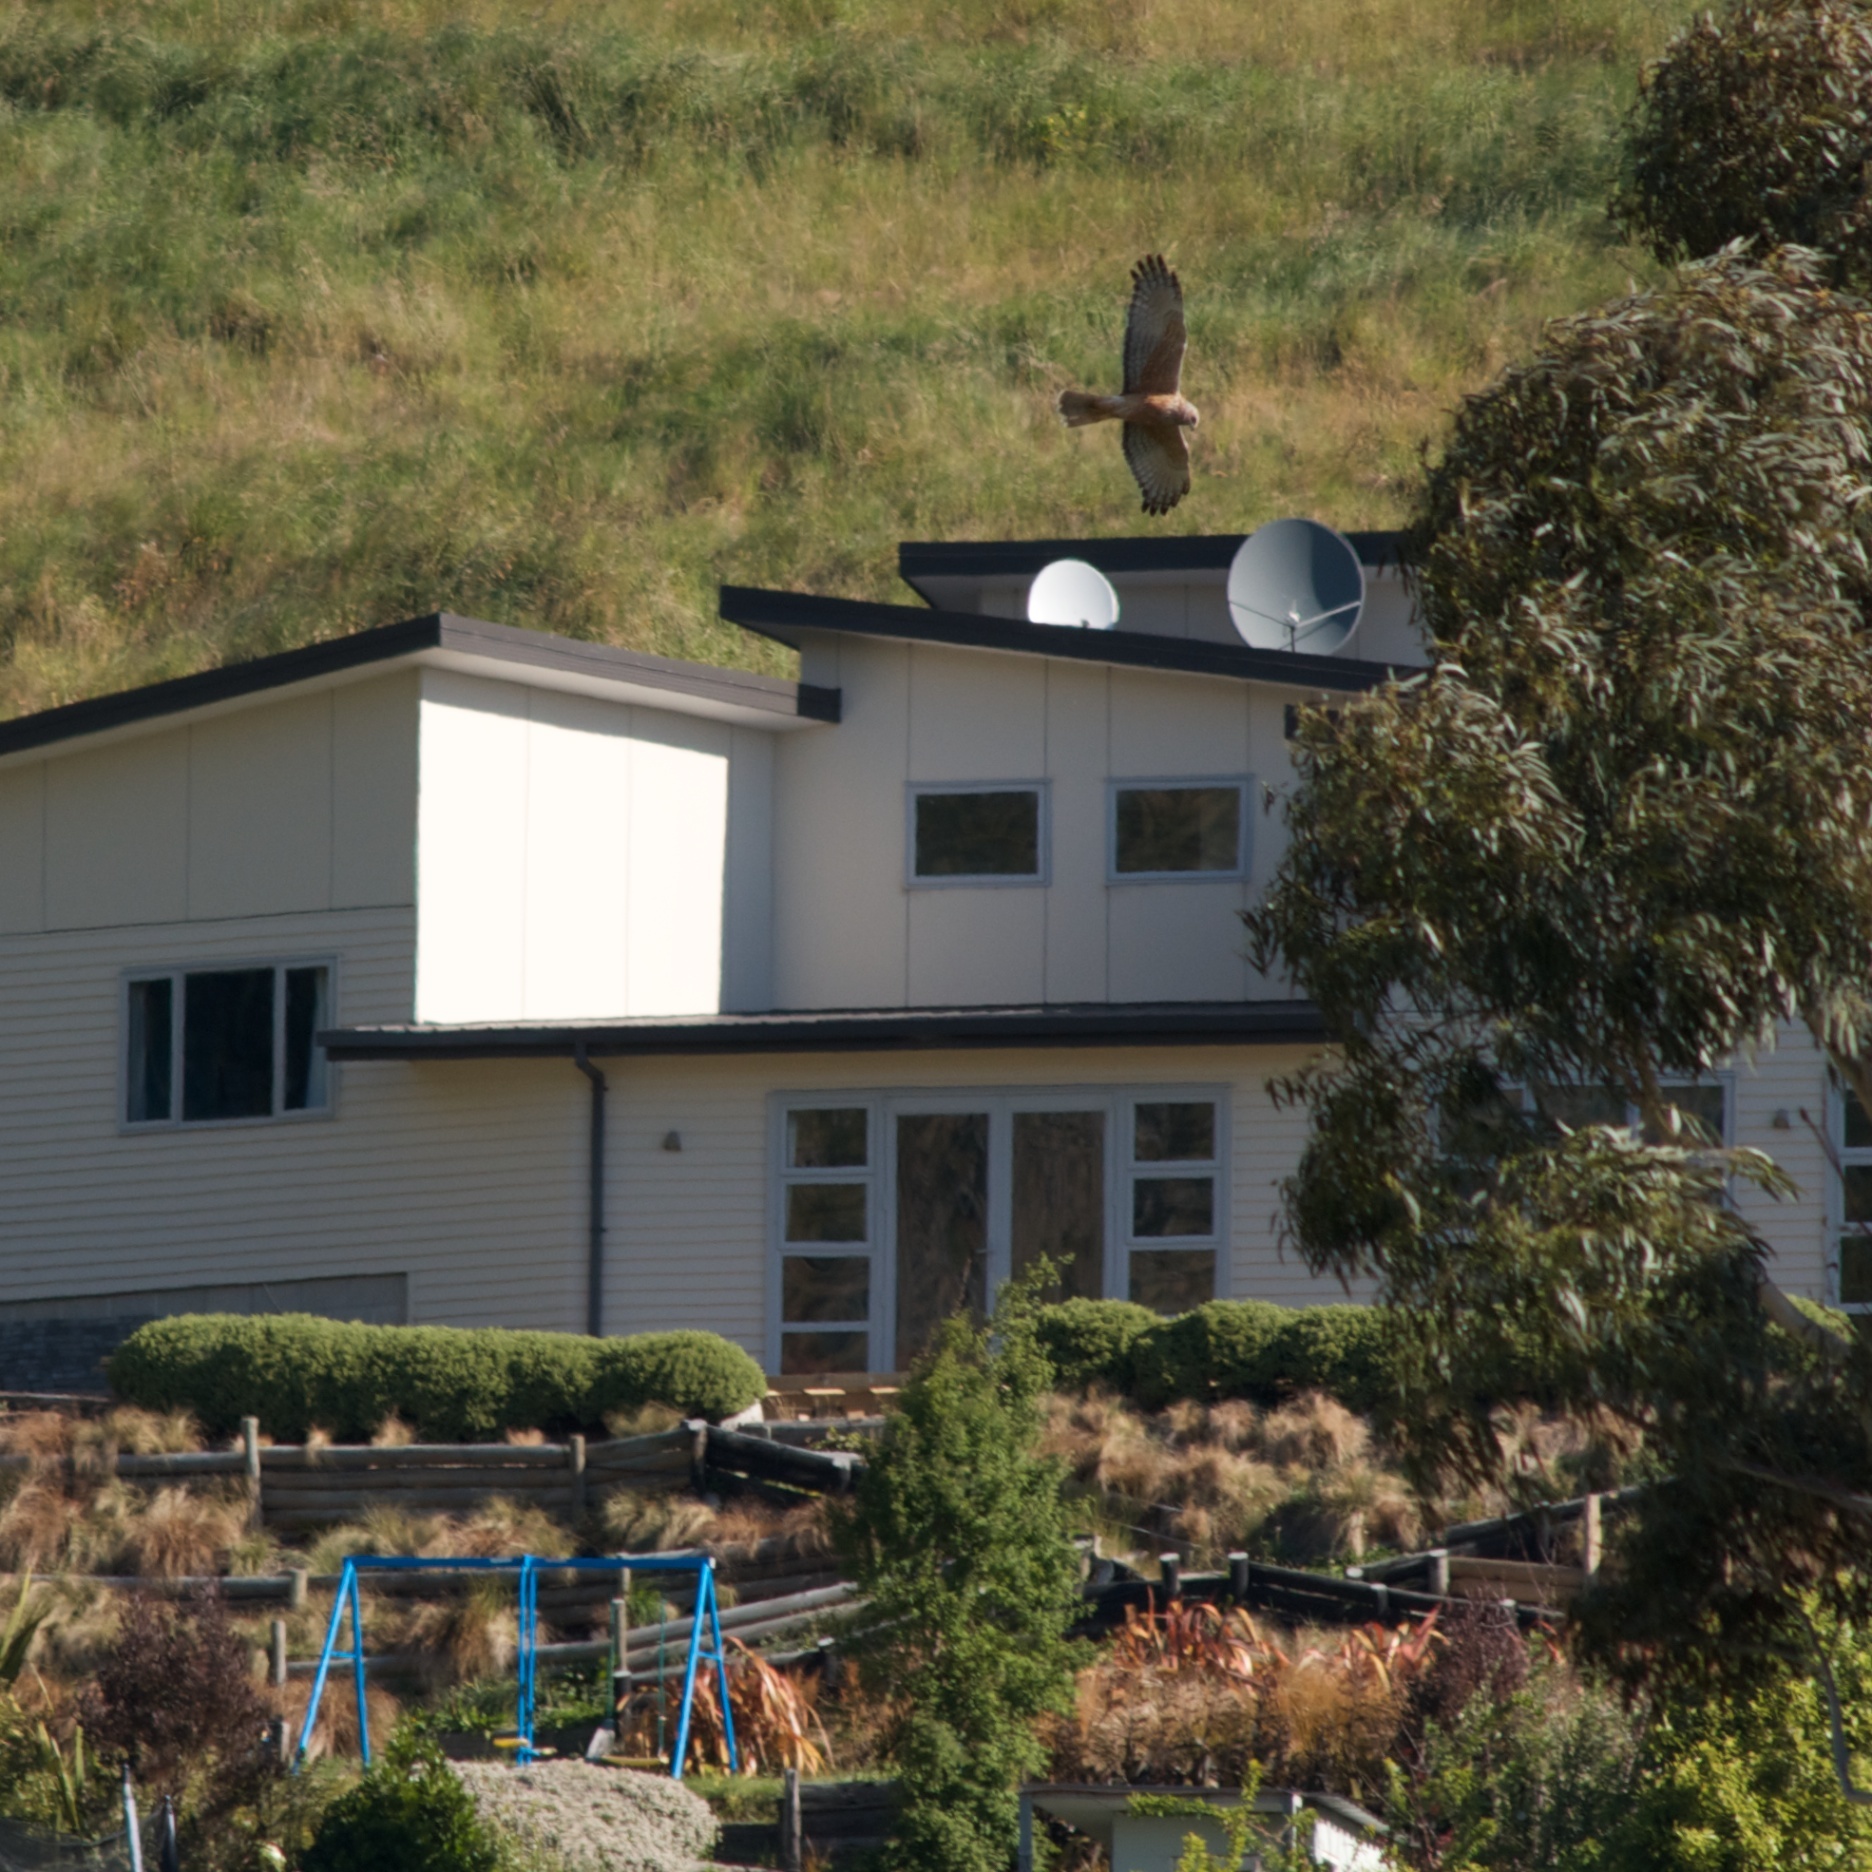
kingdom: Animalia
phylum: Chordata
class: Aves
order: Accipitriformes
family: Accipitridae
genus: Circus
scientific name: Circus approximans
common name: Swamp harrier
